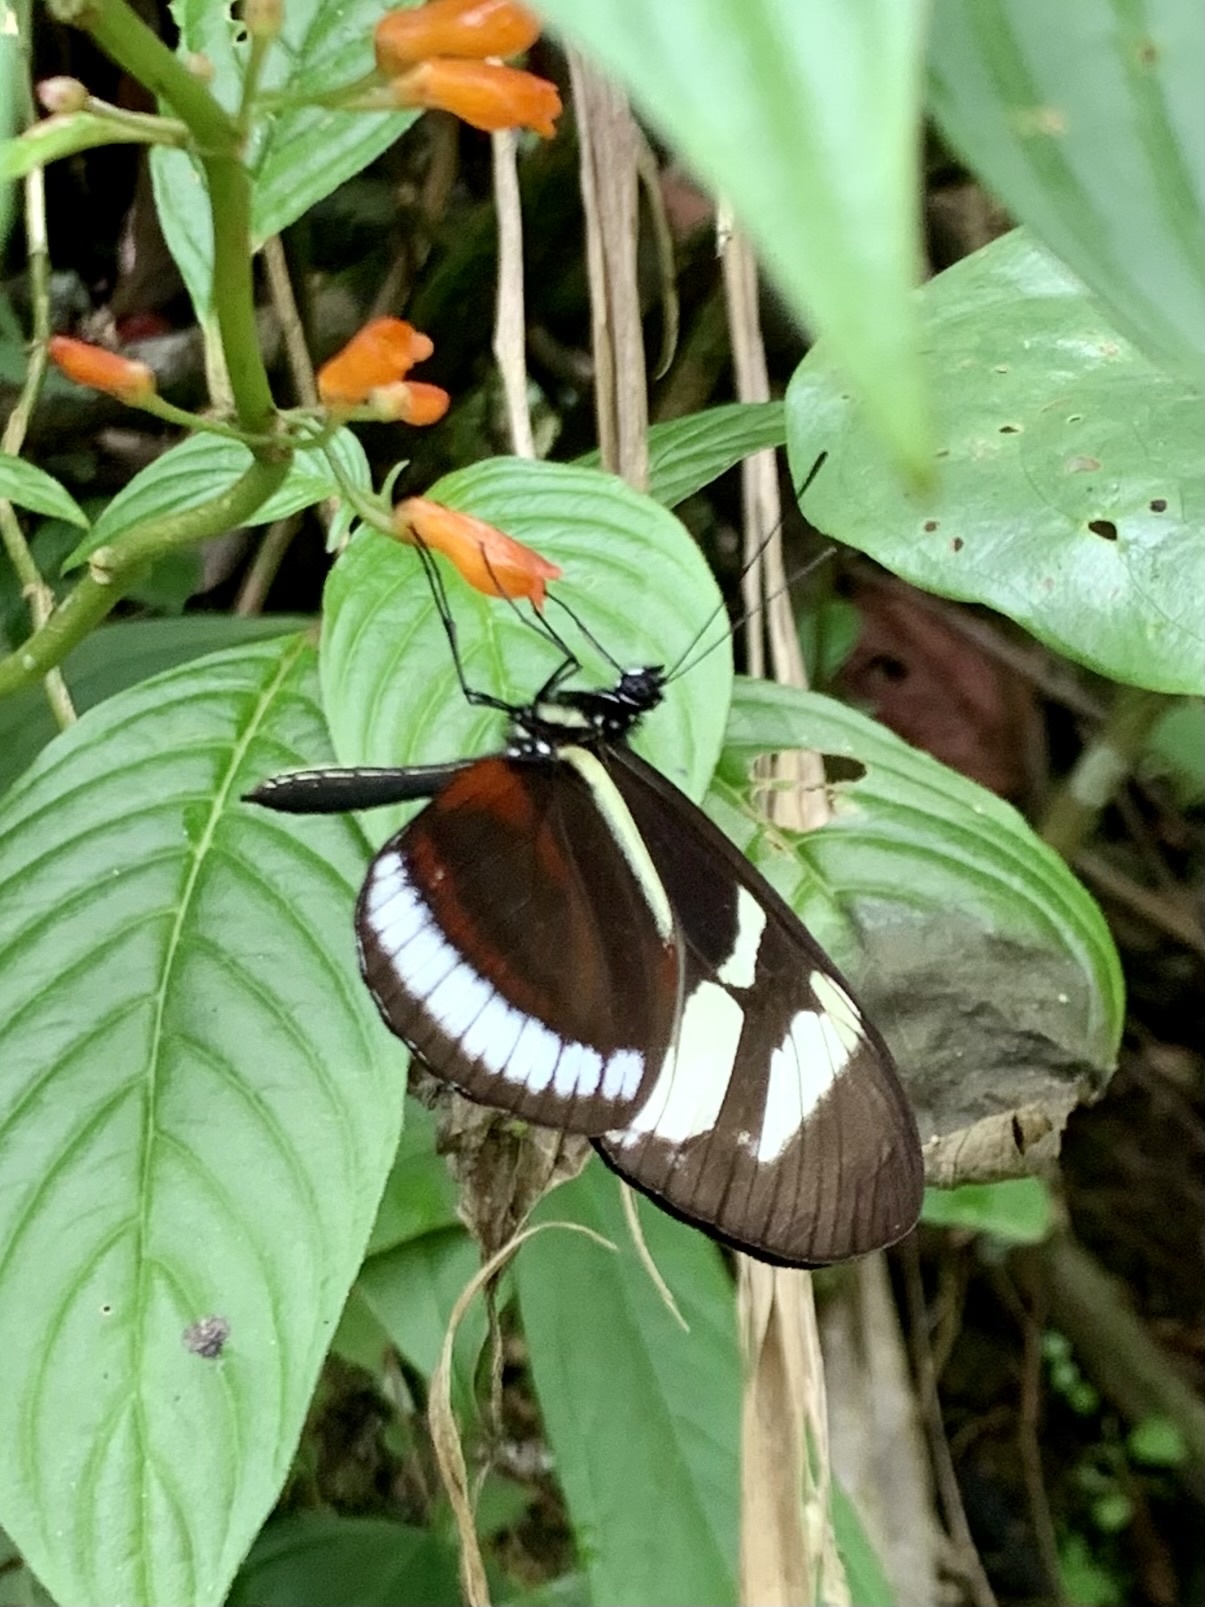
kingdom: Animalia
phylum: Arthropoda
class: Insecta
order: Lepidoptera
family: Nymphalidae
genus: Heliconius
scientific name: Heliconius cydno
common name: Cydno longwing
